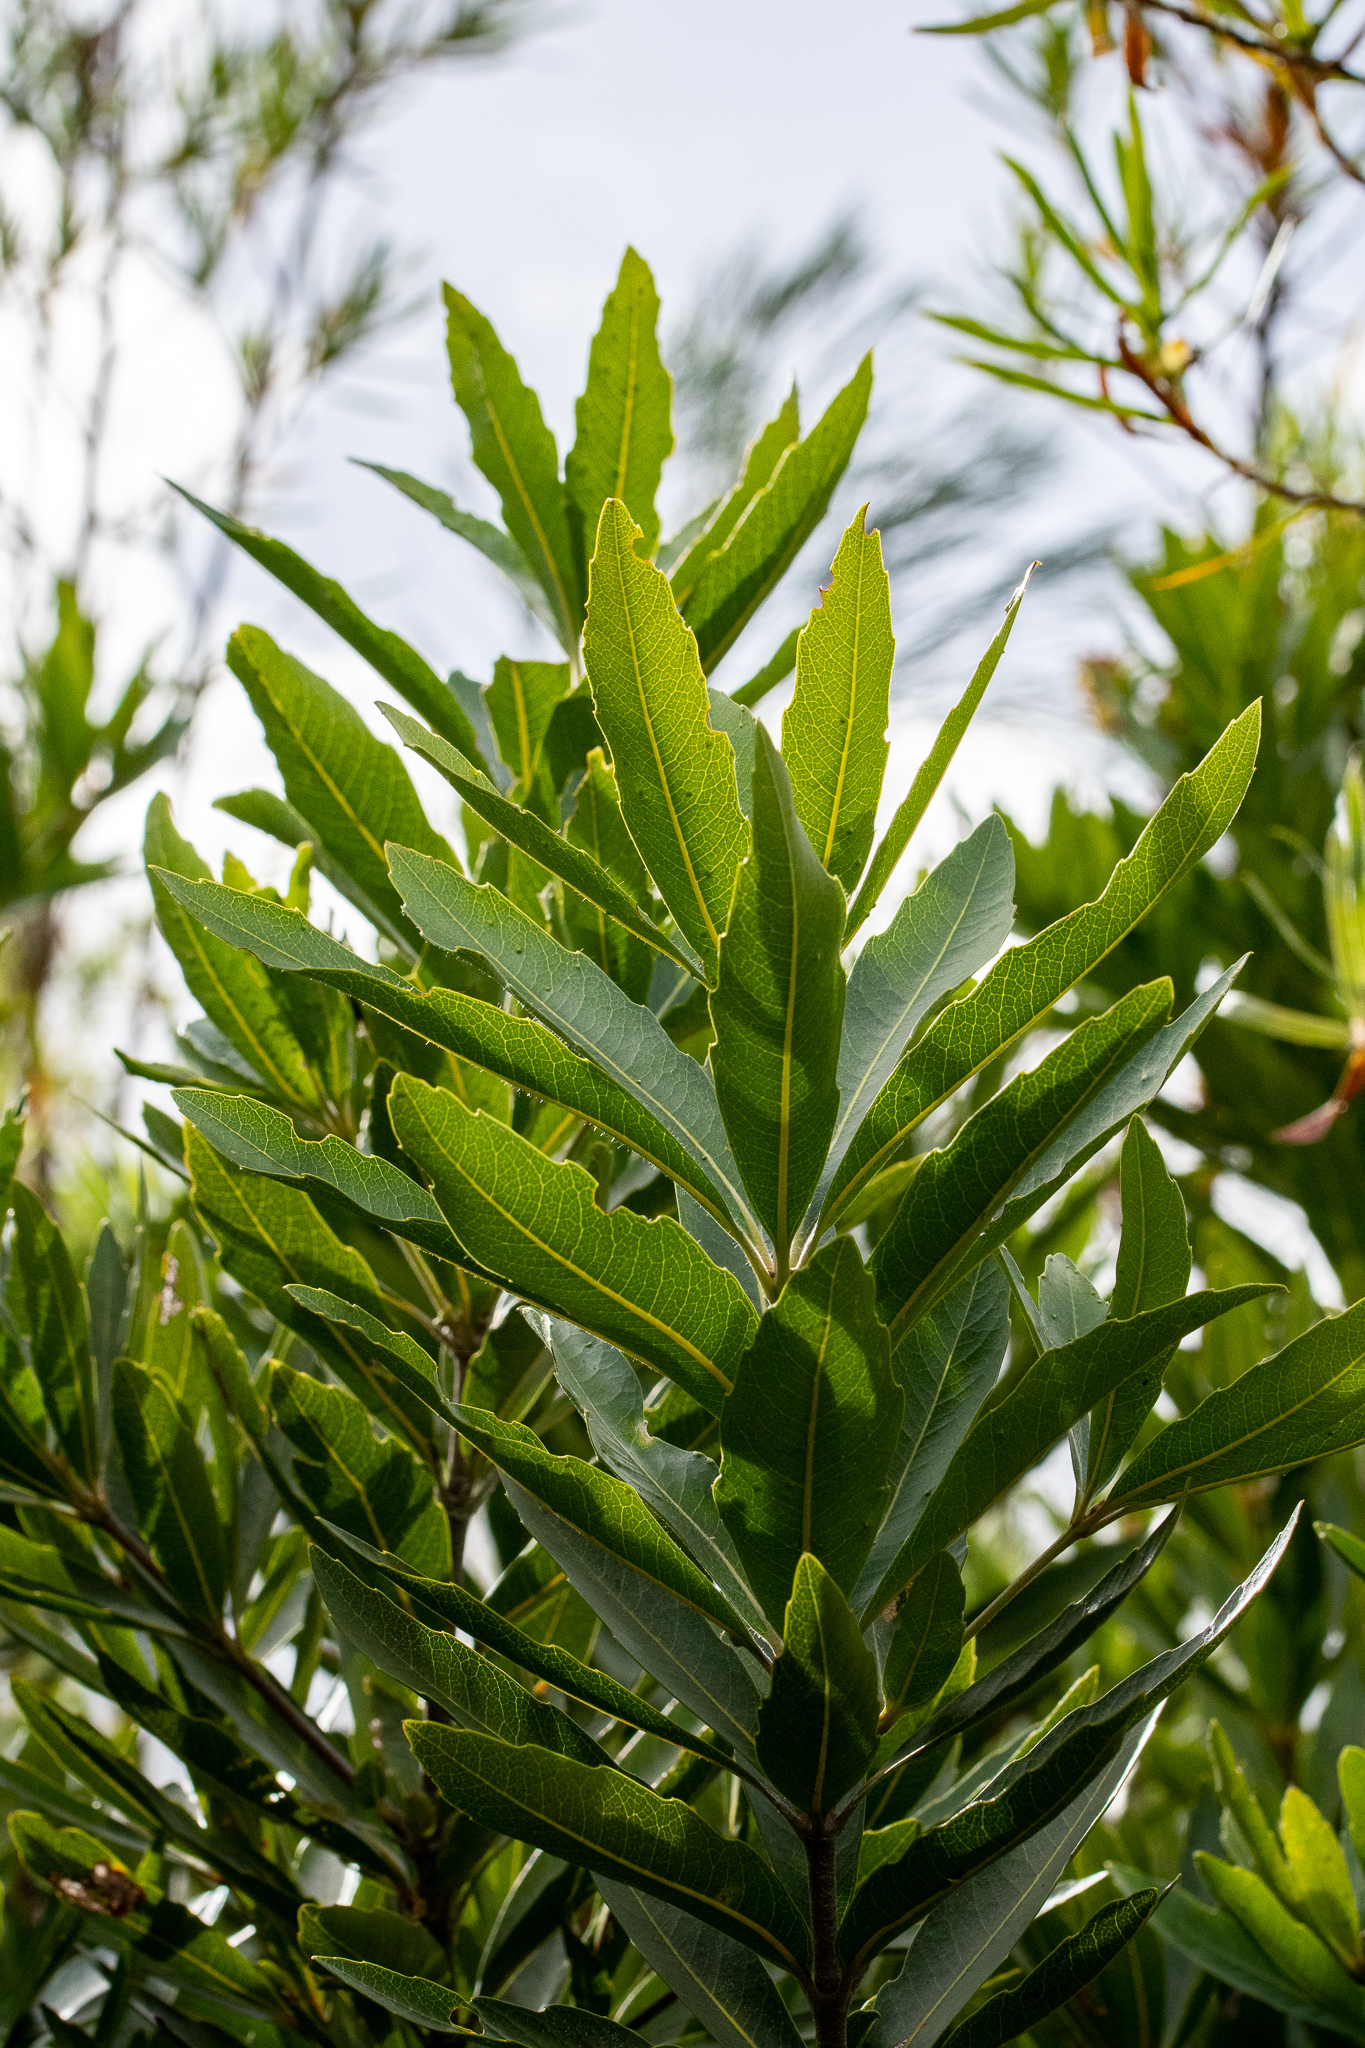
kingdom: Plantae
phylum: Tracheophyta
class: Magnoliopsida
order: Proteales
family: Proteaceae
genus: Brabejum
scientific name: Brabejum stellatifolium
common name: Wild almond
